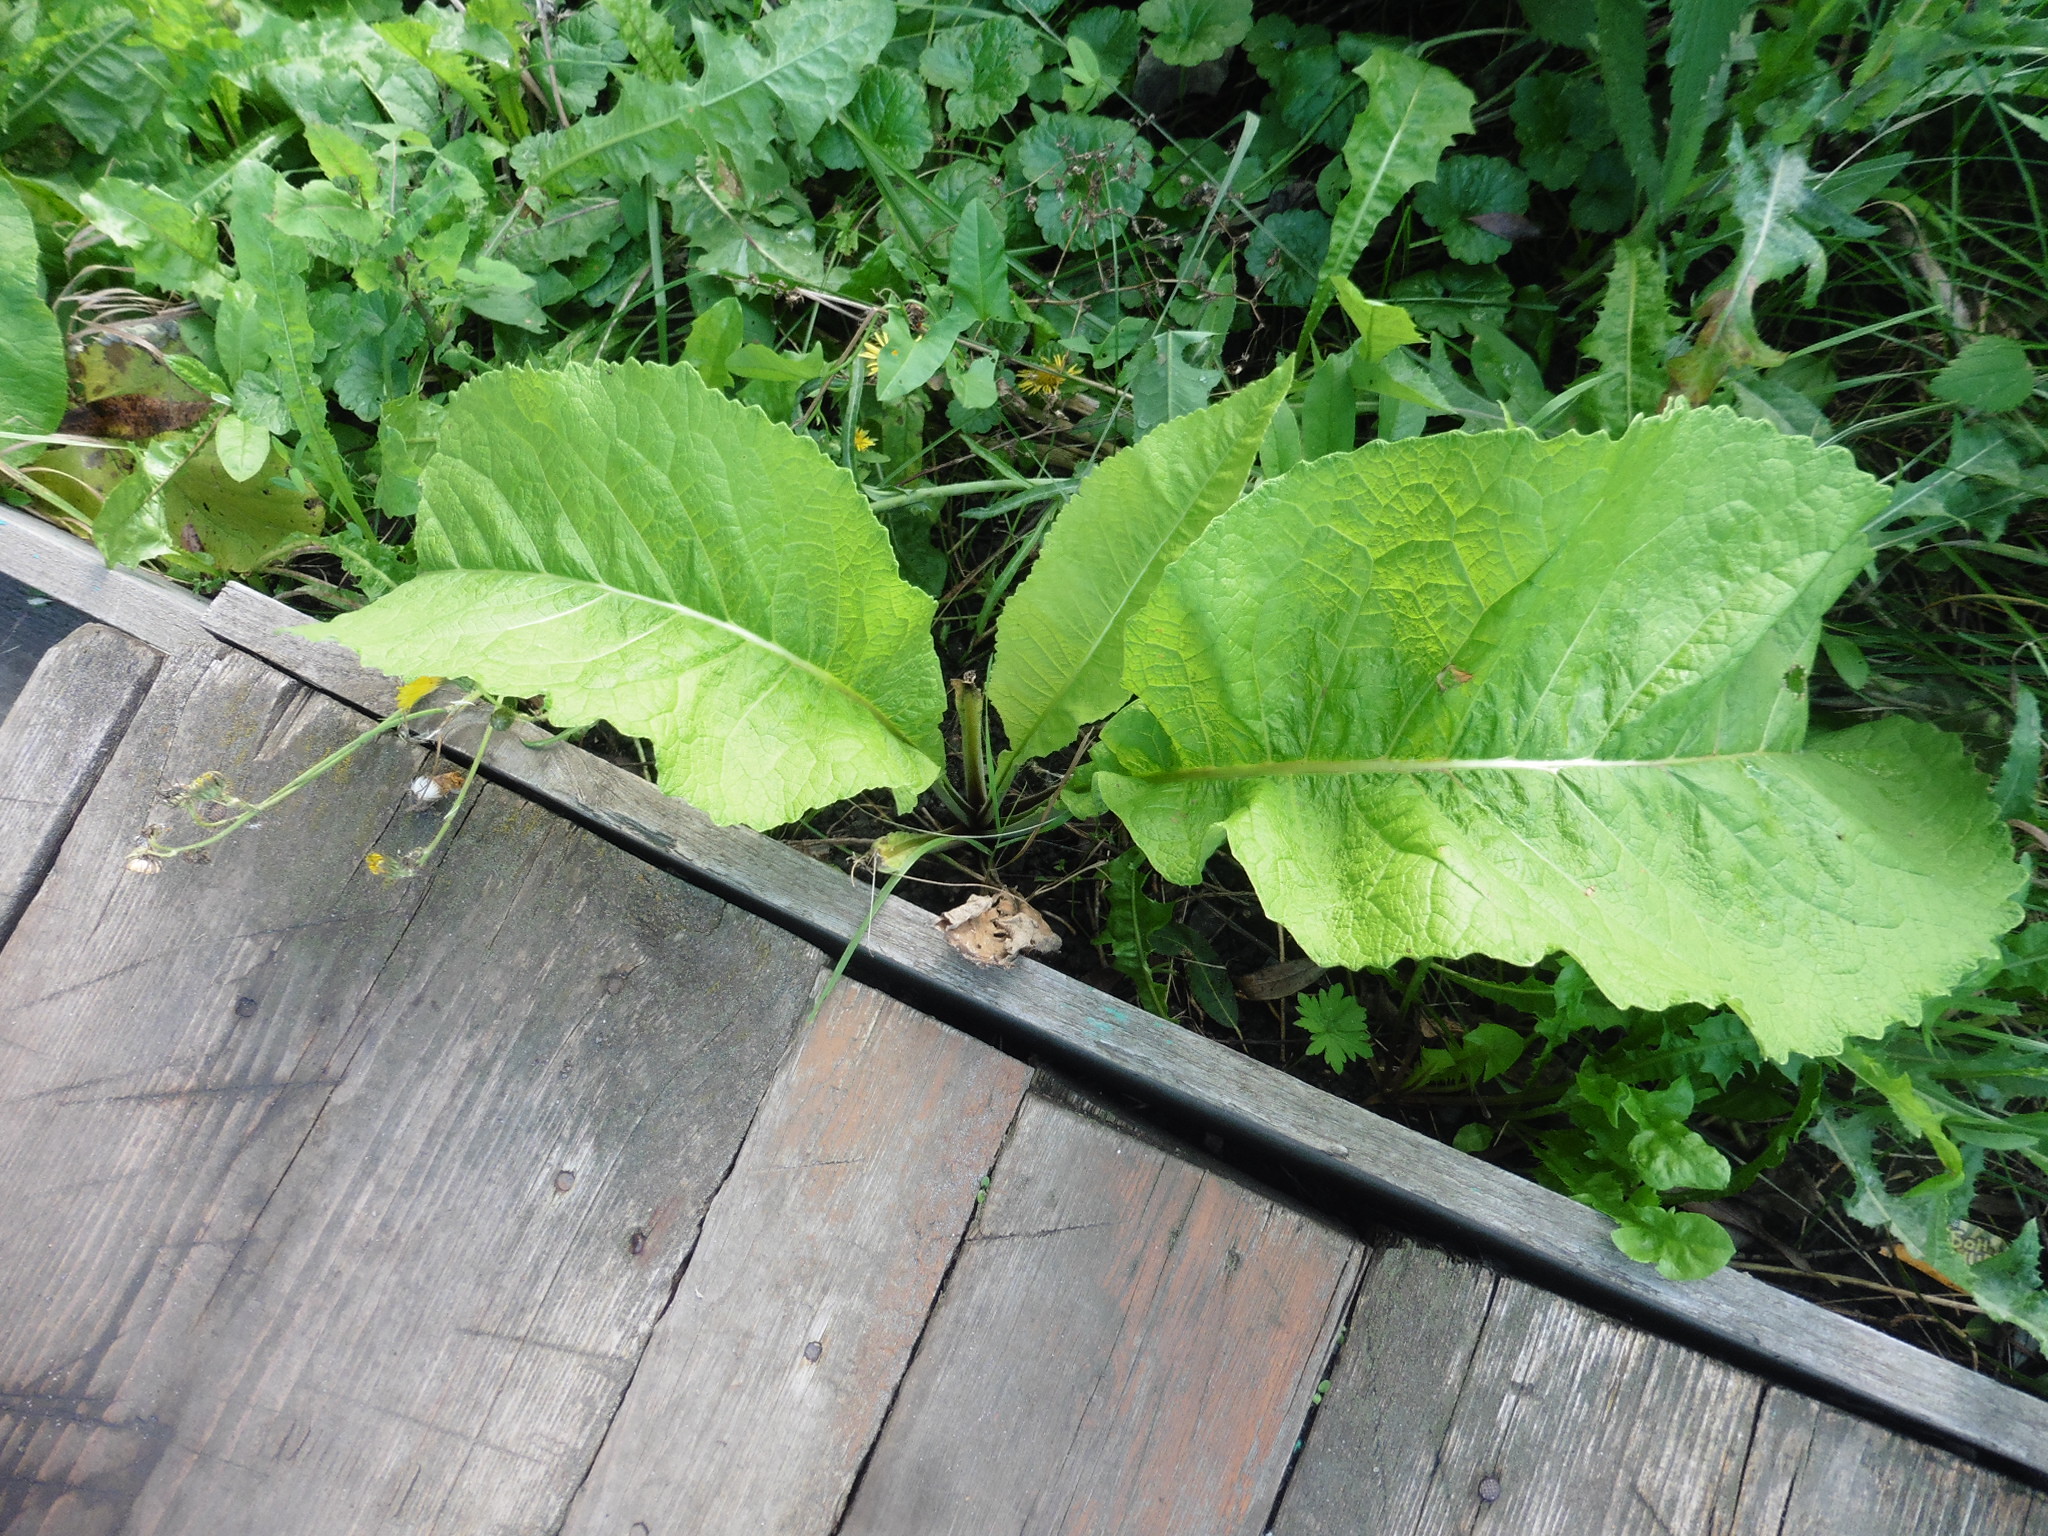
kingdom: Plantae
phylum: Tracheophyta
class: Magnoliopsida
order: Asterales
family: Asteraceae
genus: Inula
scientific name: Inula helenium
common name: Elecampane
